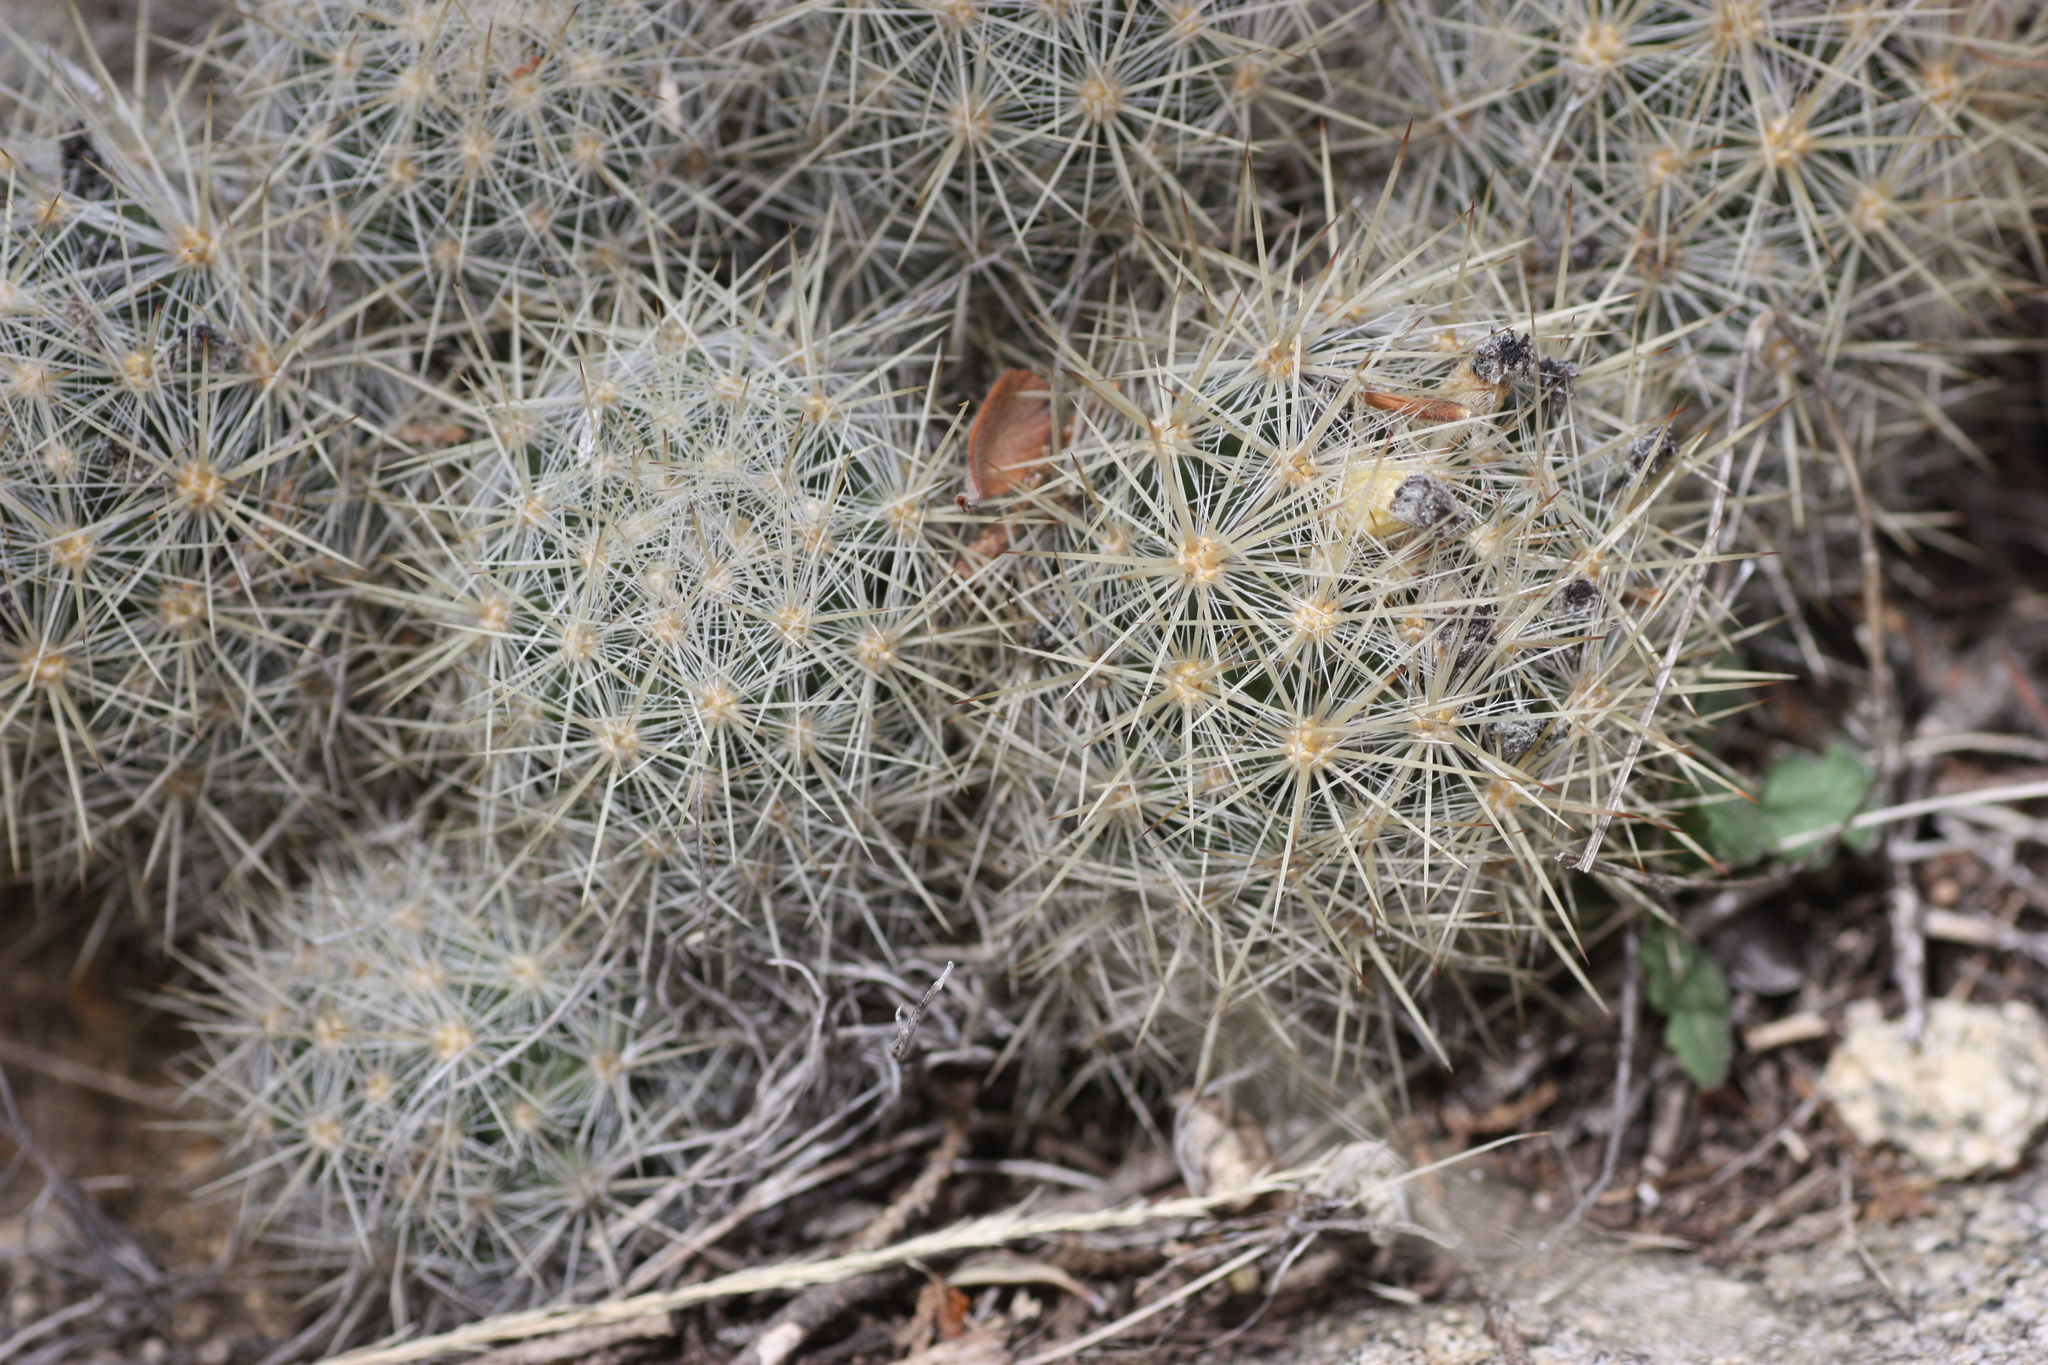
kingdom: Plantae
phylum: Tracheophyta
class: Magnoliopsida
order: Caryophyllales
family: Cactaceae
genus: Pelecyphora
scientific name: Pelecyphora sneedii
